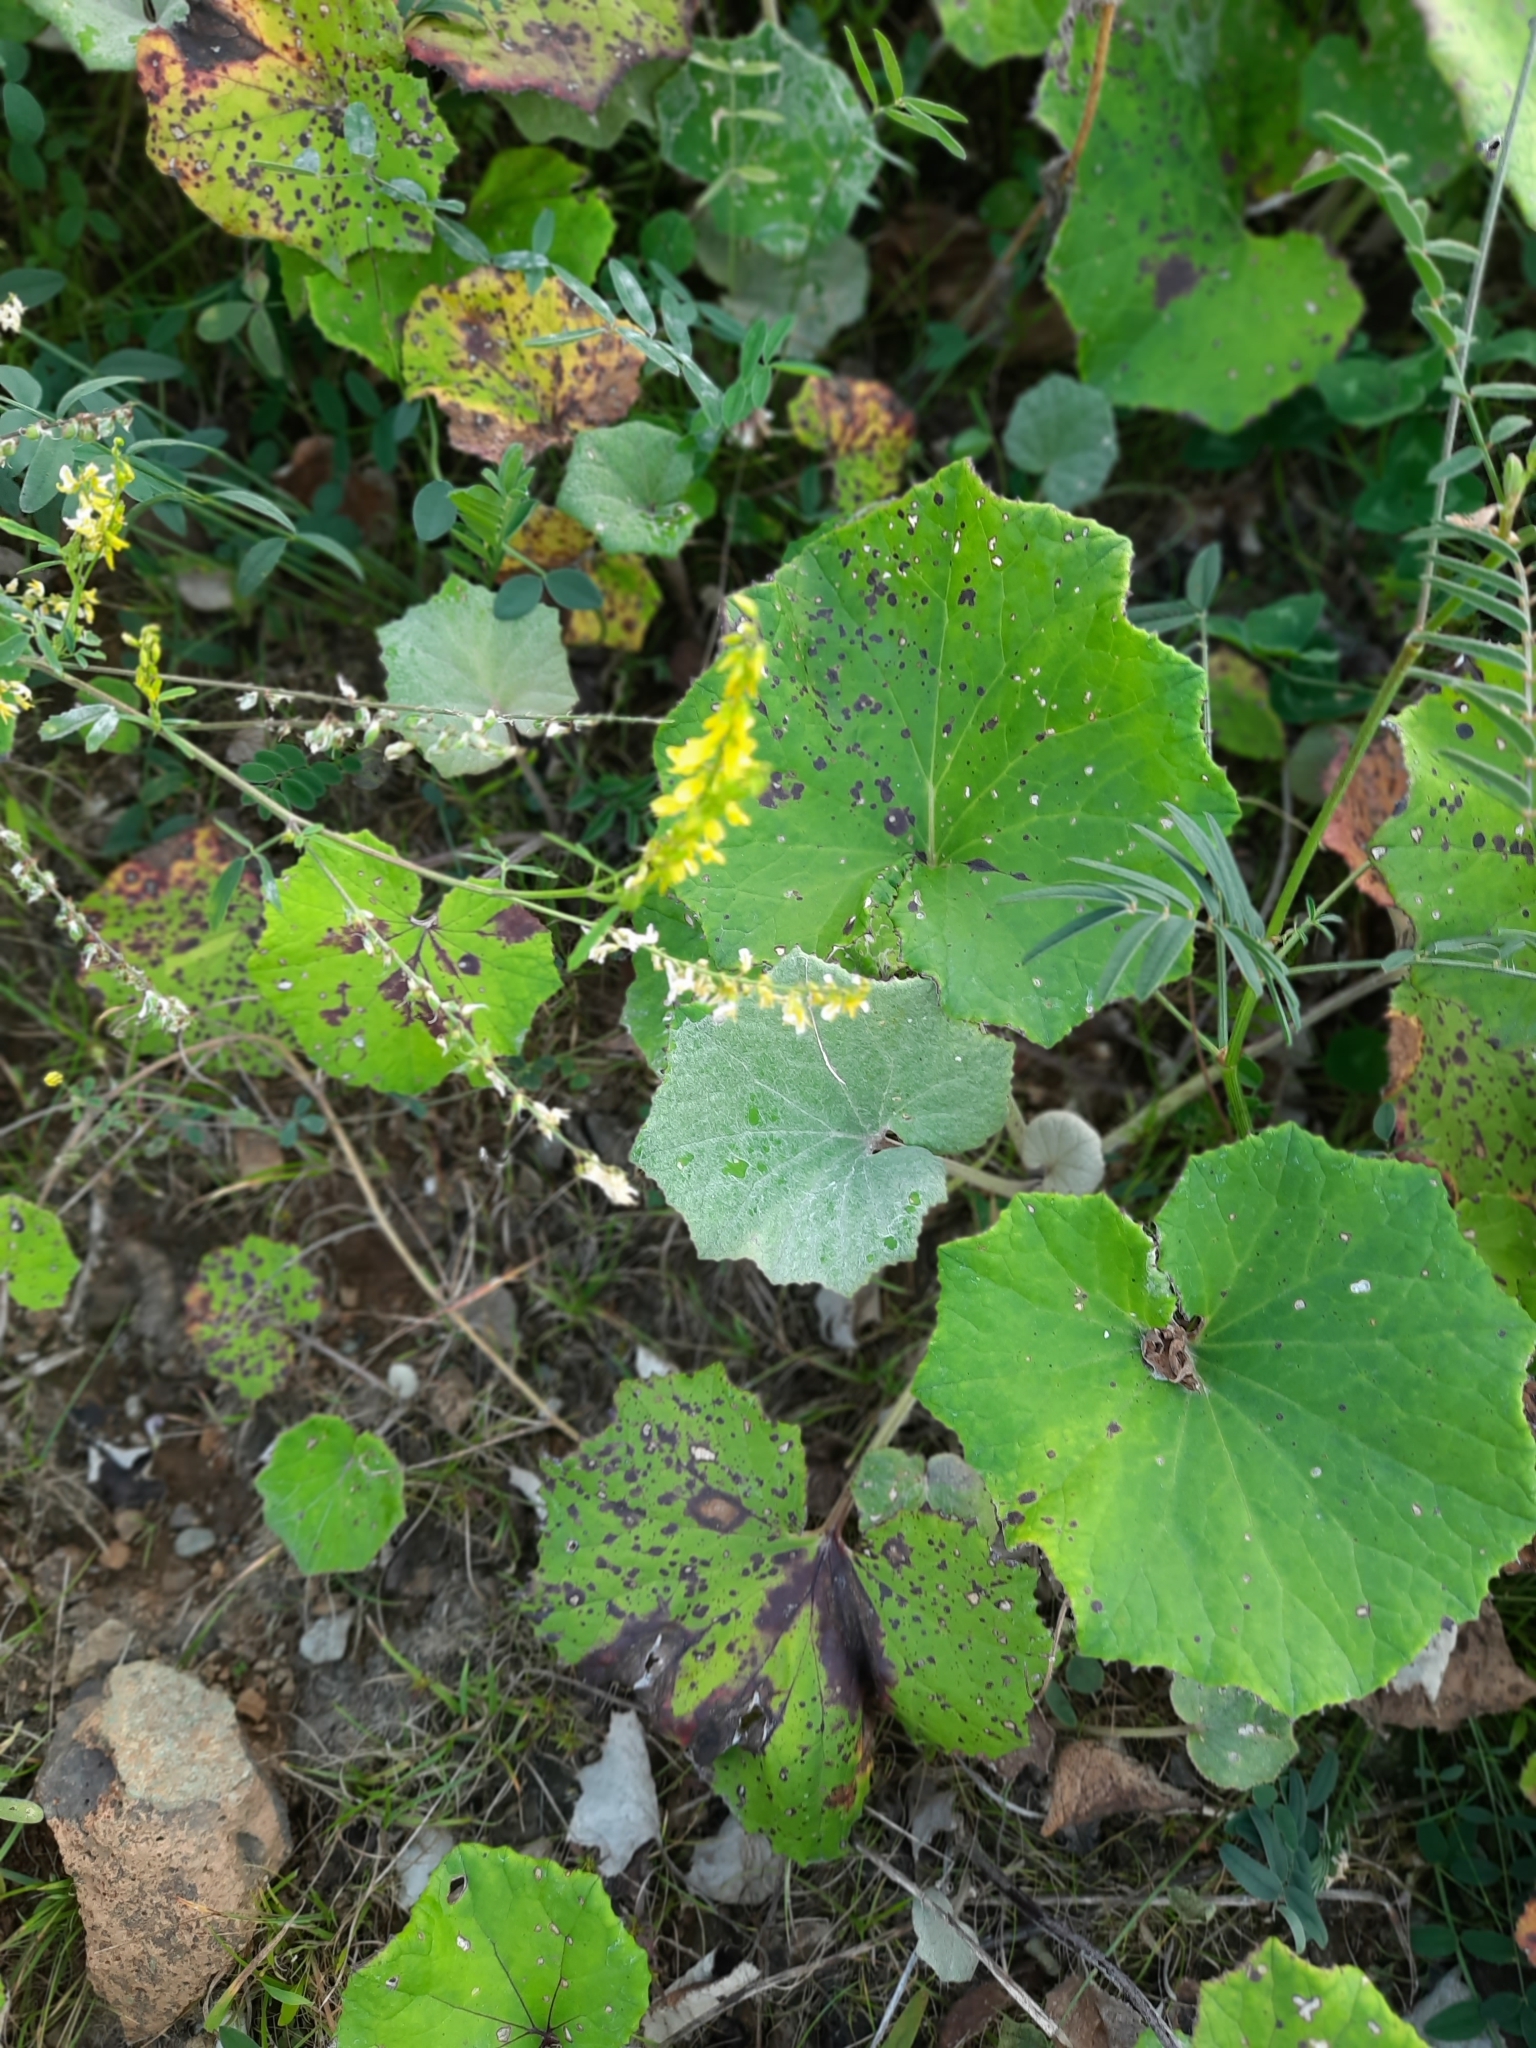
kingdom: Plantae
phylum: Tracheophyta
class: Magnoliopsida
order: Asterales
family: Asteraceae
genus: Tussilago
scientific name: Tussilago farfara
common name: Coltsfoot
